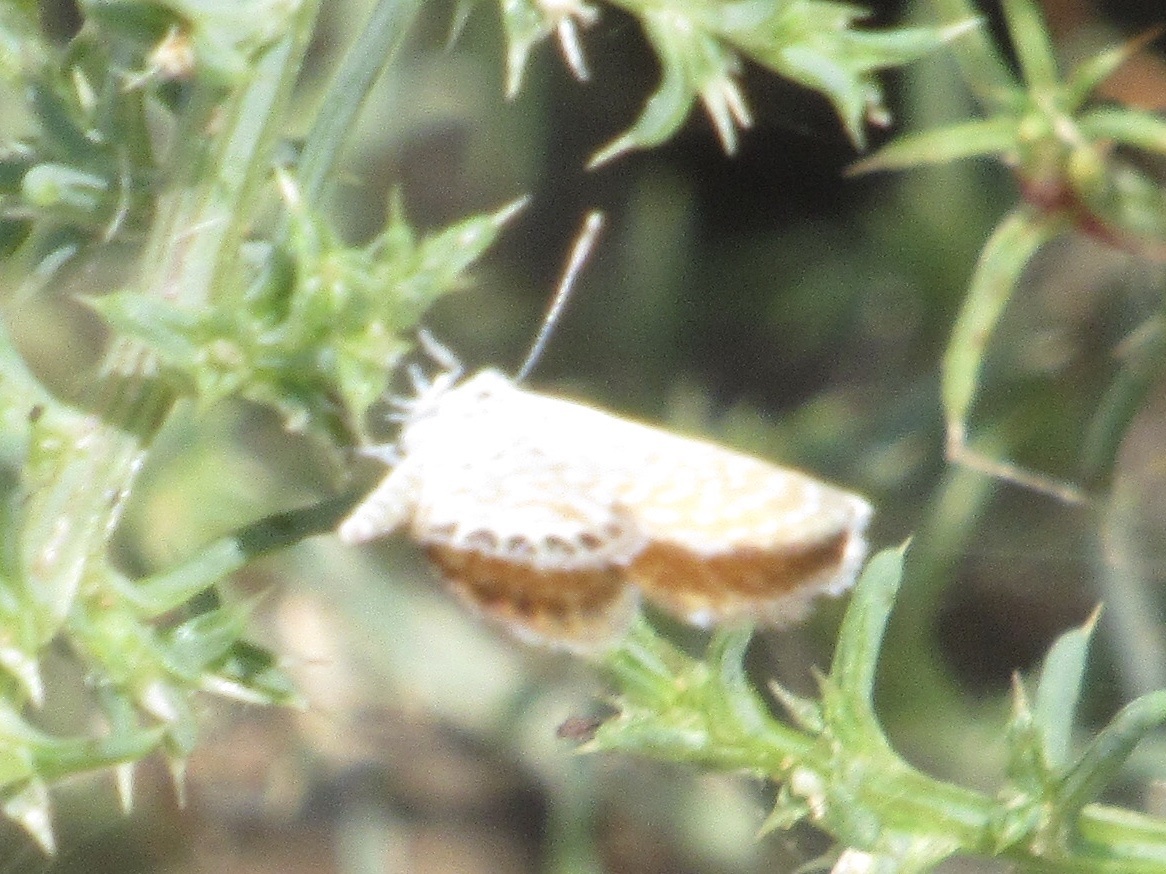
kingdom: Animalia
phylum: Arthropoda
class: Insecta
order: Lepidoptera
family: Lycaenidae
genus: Brephidium
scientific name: Brephidium exilis
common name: Pygmy blue
